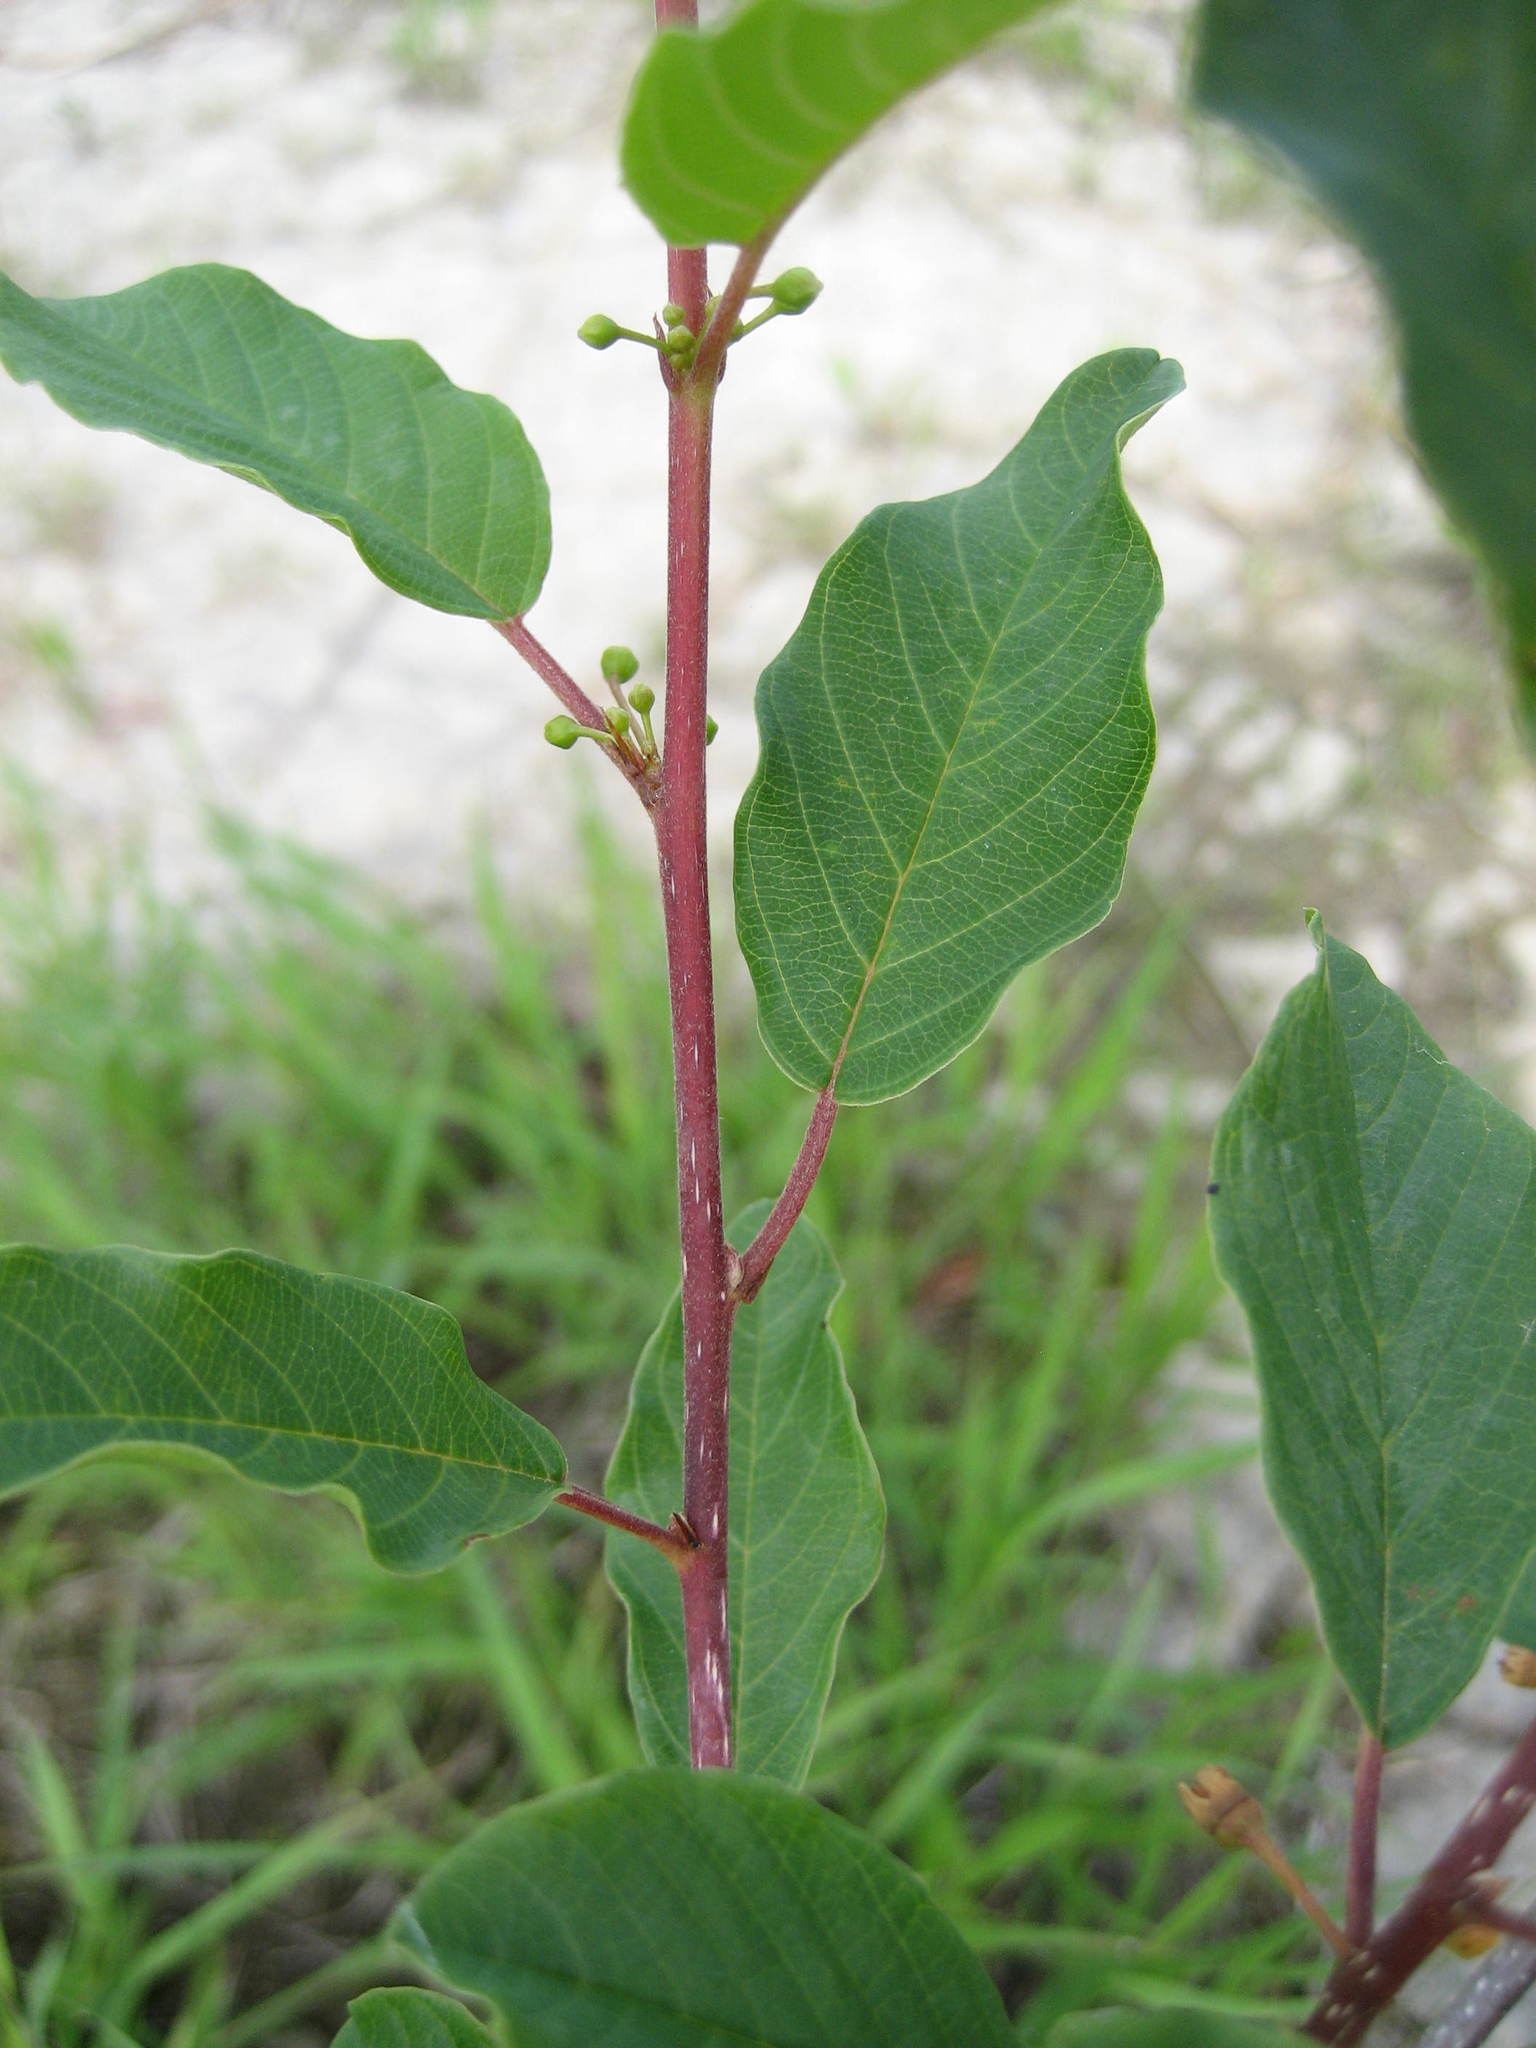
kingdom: Plantae
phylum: Tracheophyta
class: Magnoliopsida
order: Rosales
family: Rhamnaceae
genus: Frangula
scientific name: Frangula alnus
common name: Alder buckthorn
